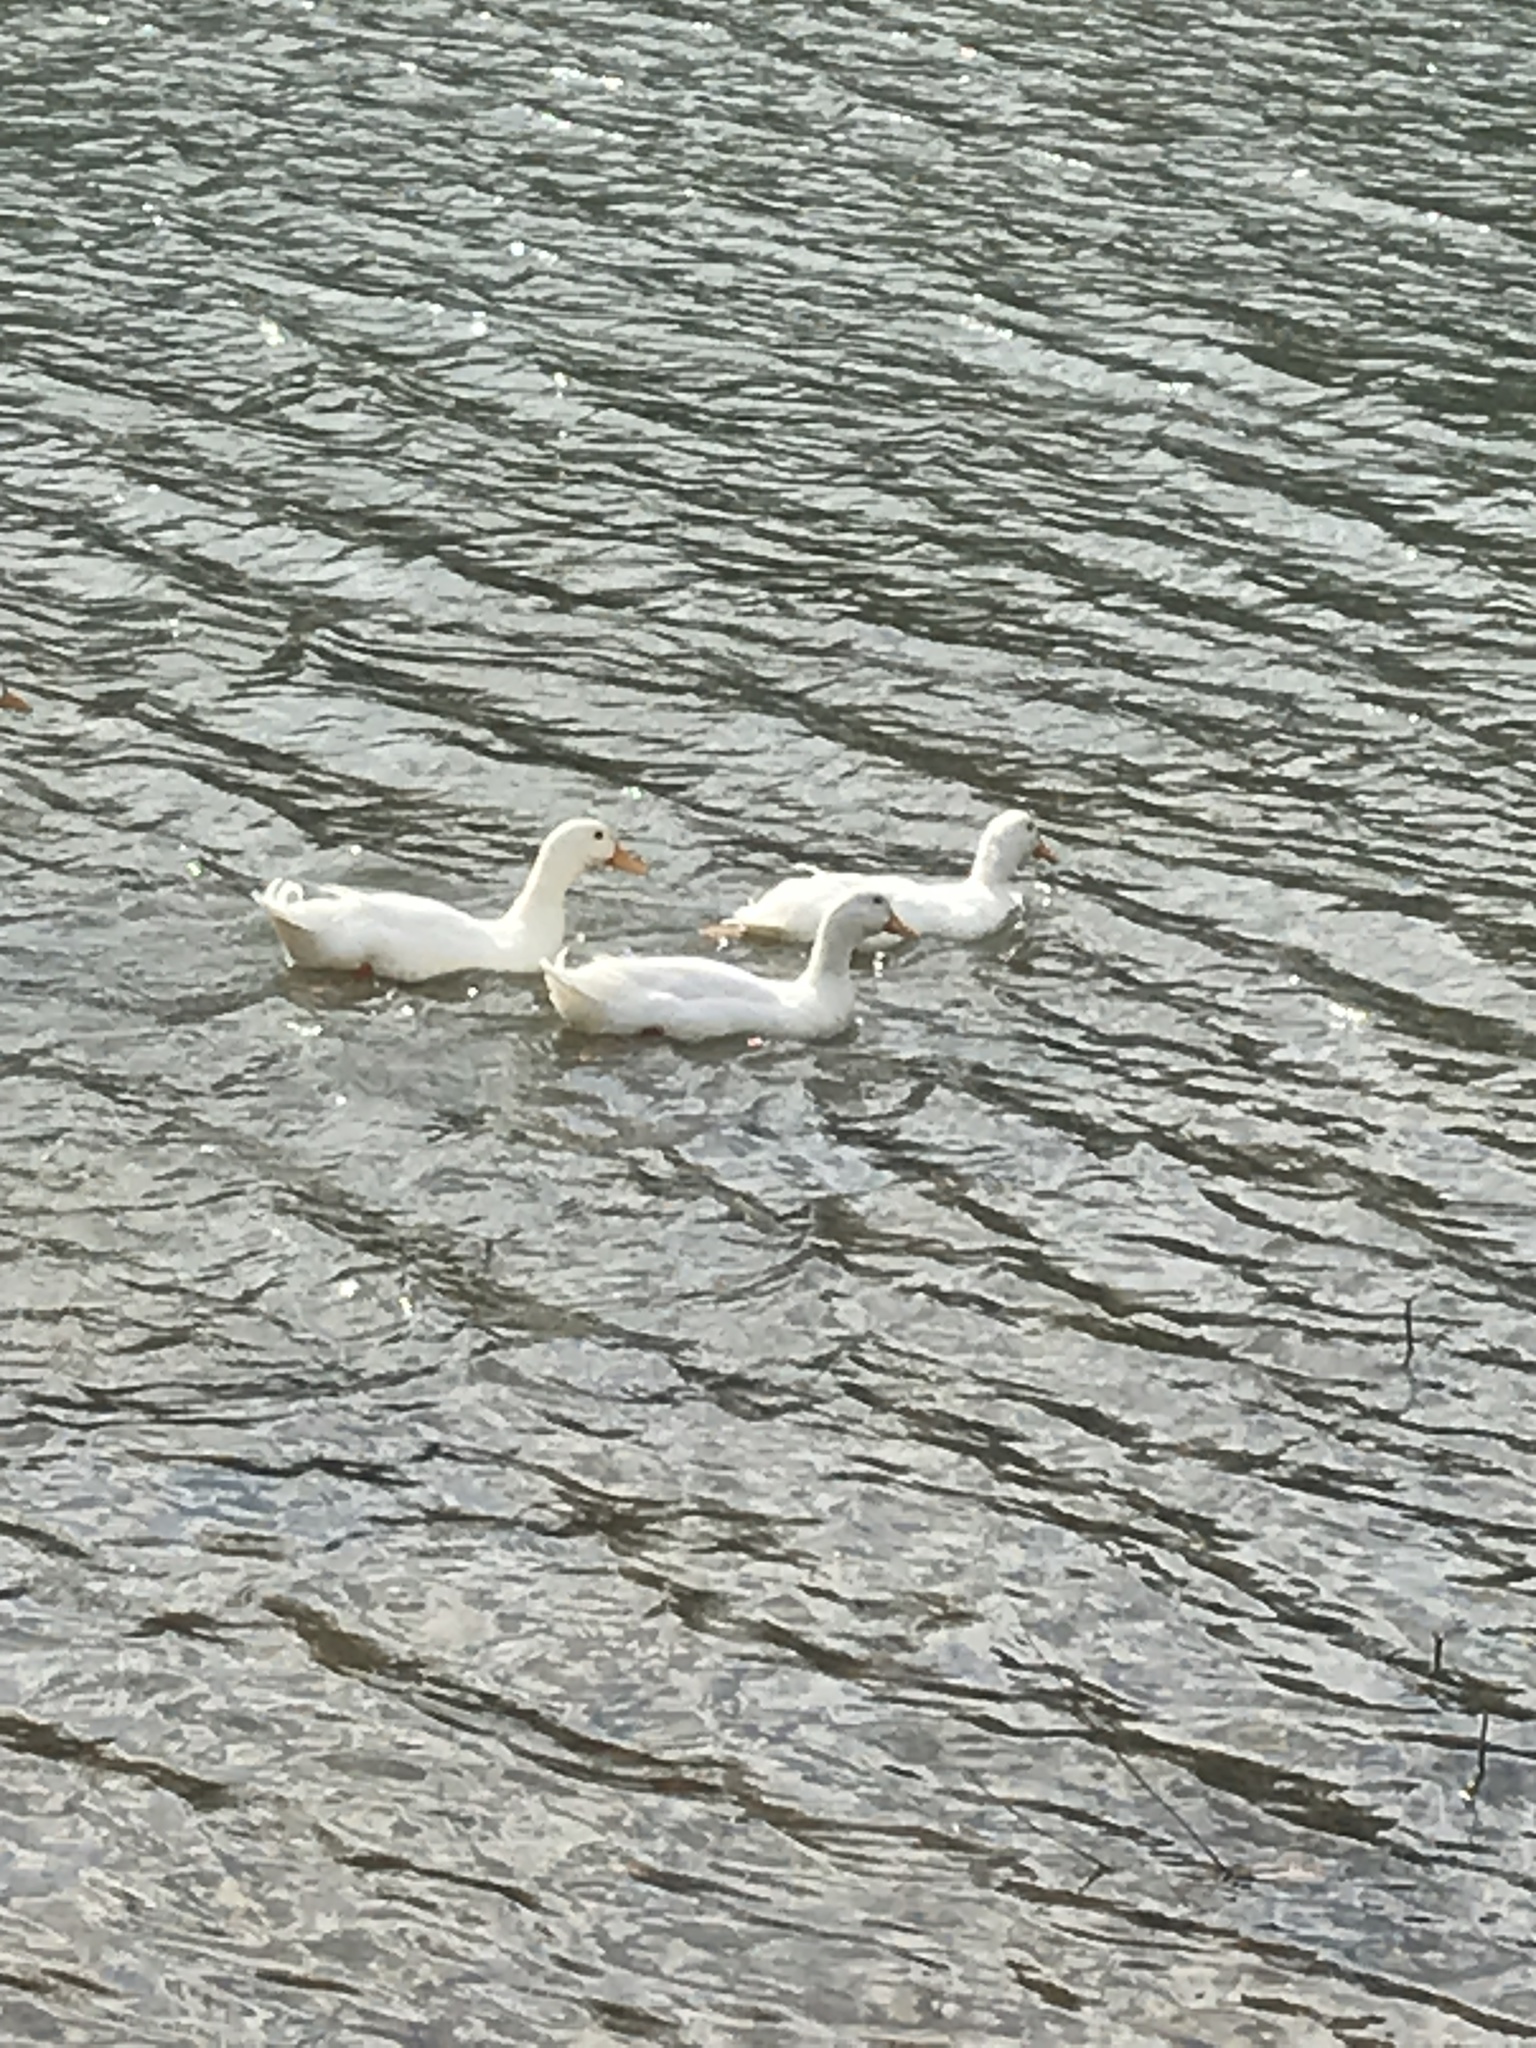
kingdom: Animalia
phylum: Chordata
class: Aves
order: Anseriformes
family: Anatidae
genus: Anas
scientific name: Anas platyrhynchos
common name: Mallard
